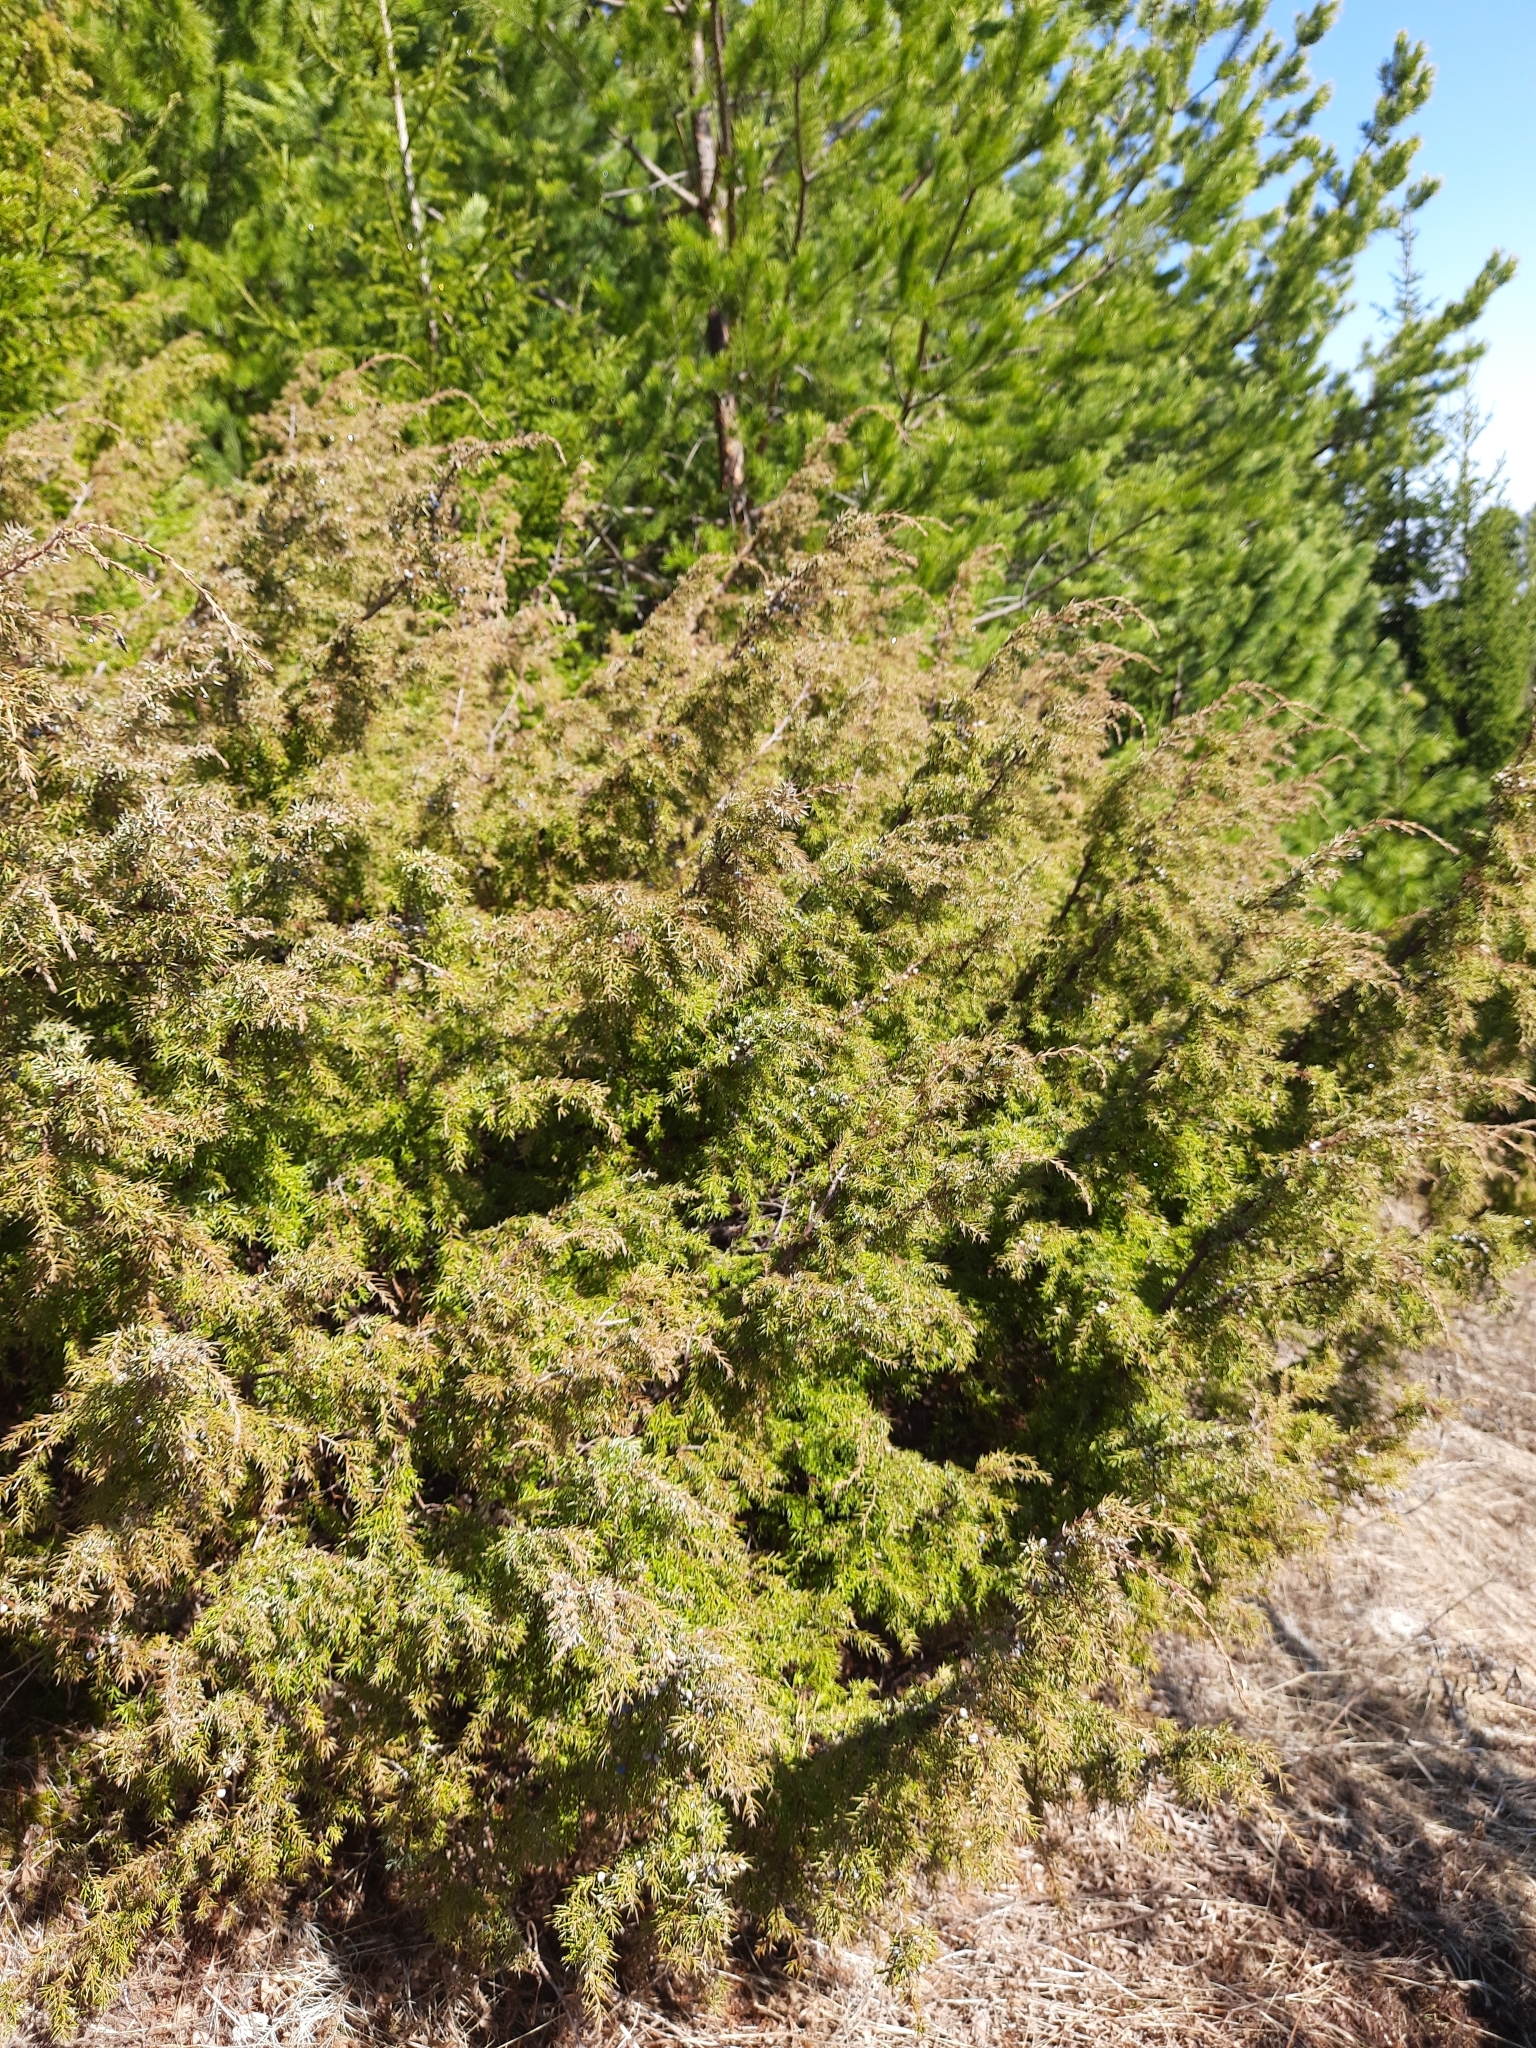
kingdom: Plantae
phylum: Tracheophyta
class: Pinopsida
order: Pinales
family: Cupressaceae
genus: Juniperus
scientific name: Juniperus communis
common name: Common juniper
